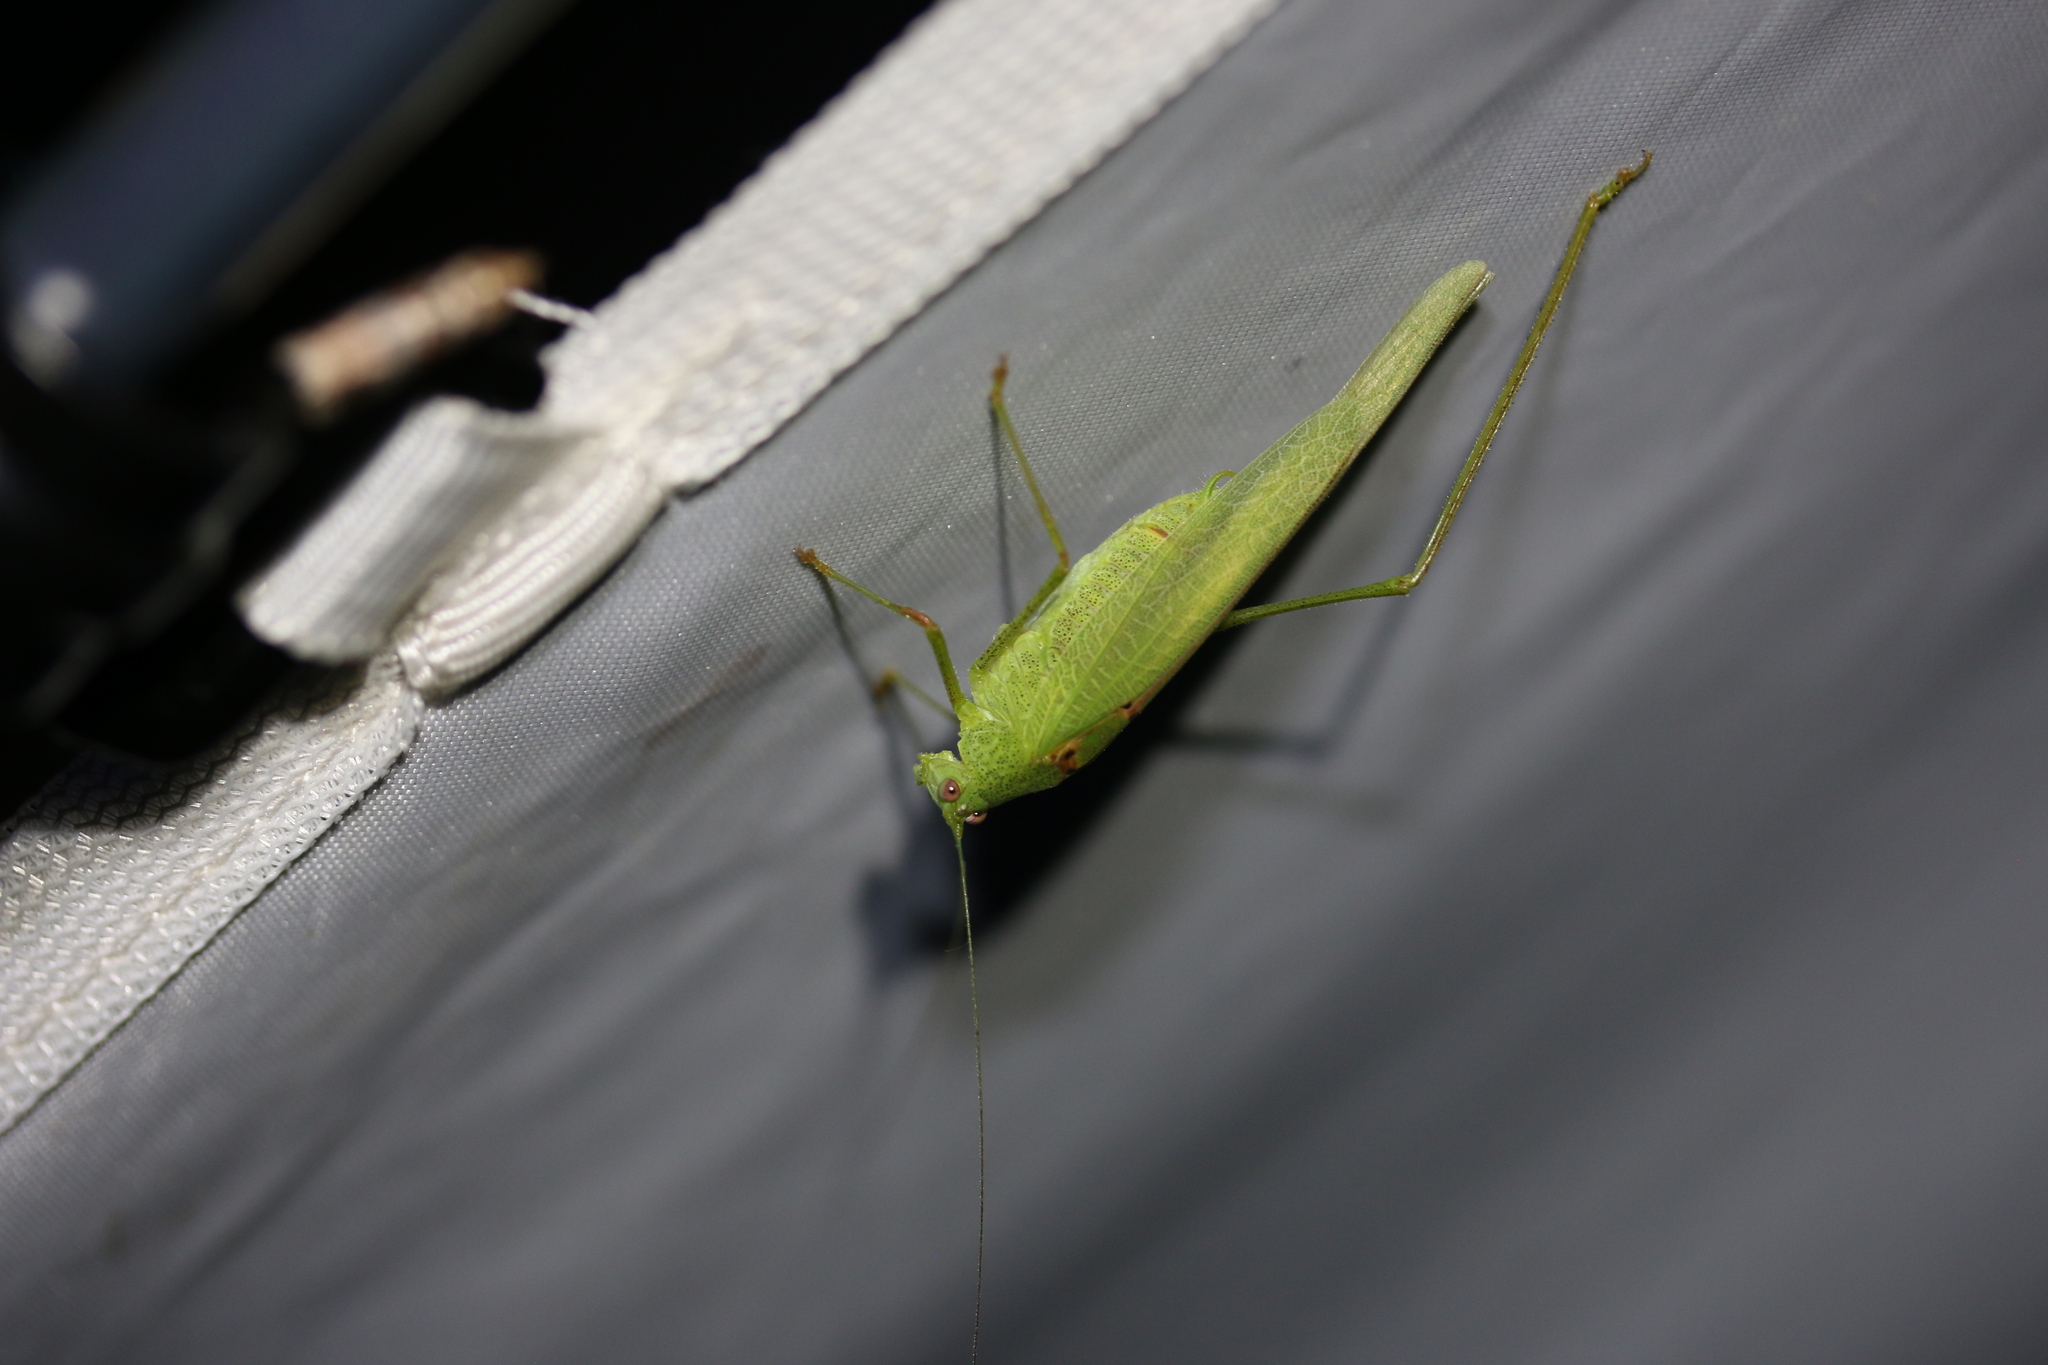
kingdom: Animalia
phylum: Arthropoda
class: Insecta
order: Orthoptera
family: Tettigoniidae
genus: Phaneroptera
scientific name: Phaneroptera nana
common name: Southern sickle bush-cricket
